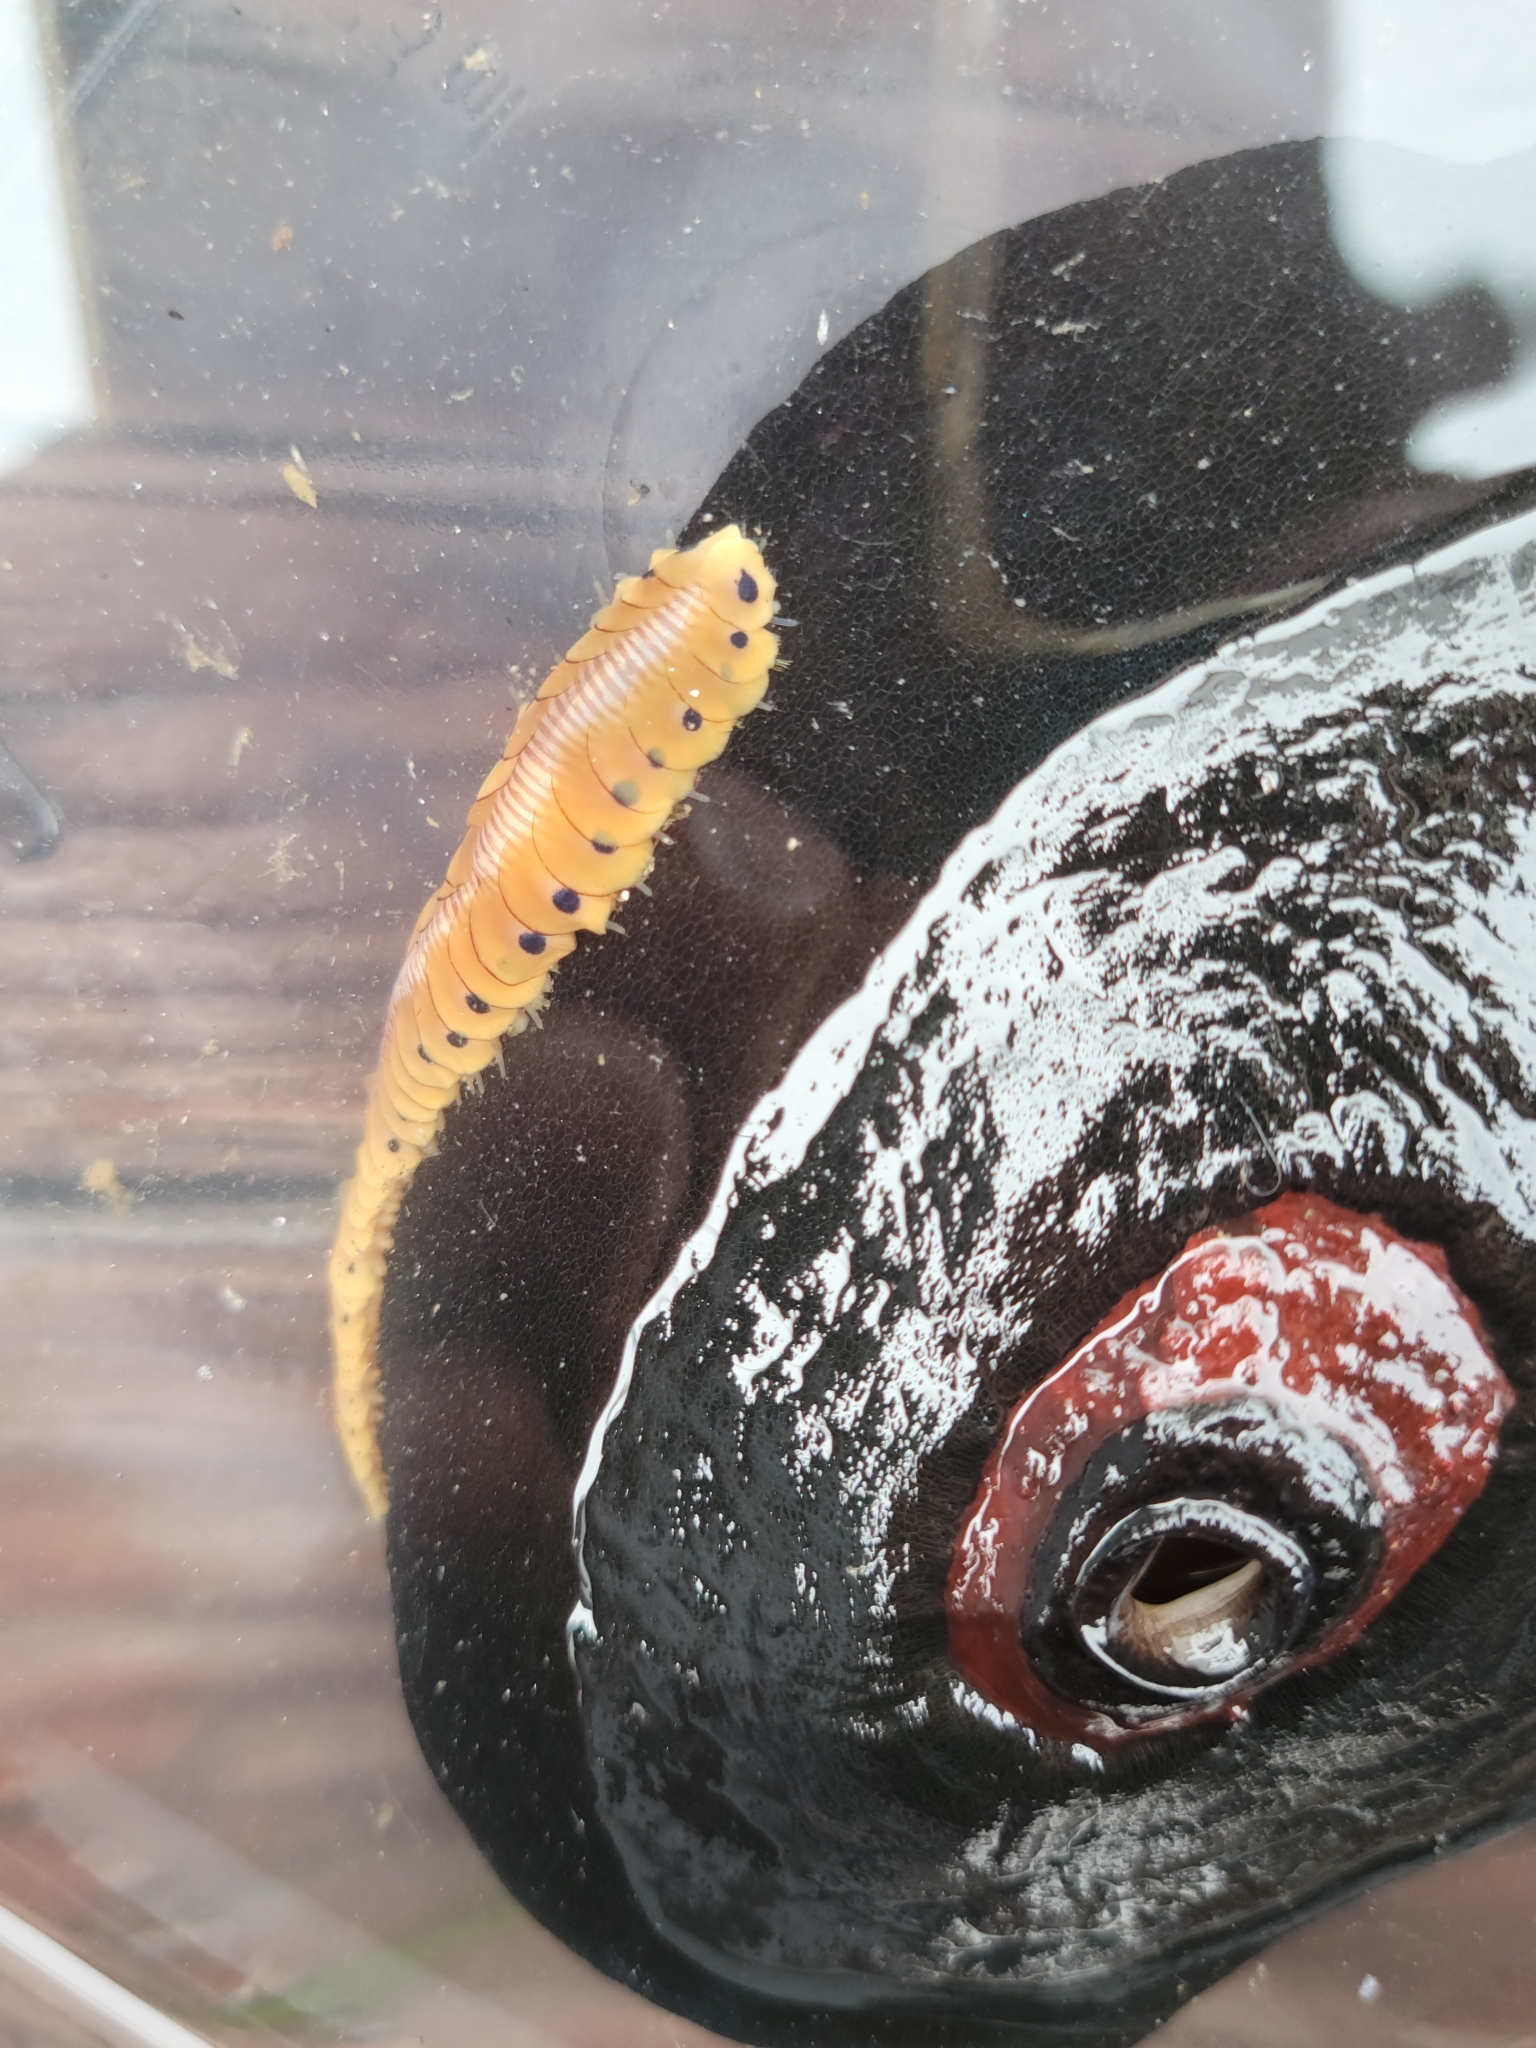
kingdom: Animalia
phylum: Annelida
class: Polychaeta
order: Phyllodocida
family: Polynoidae
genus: Arctonoe
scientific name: Arctonoe pulchra
